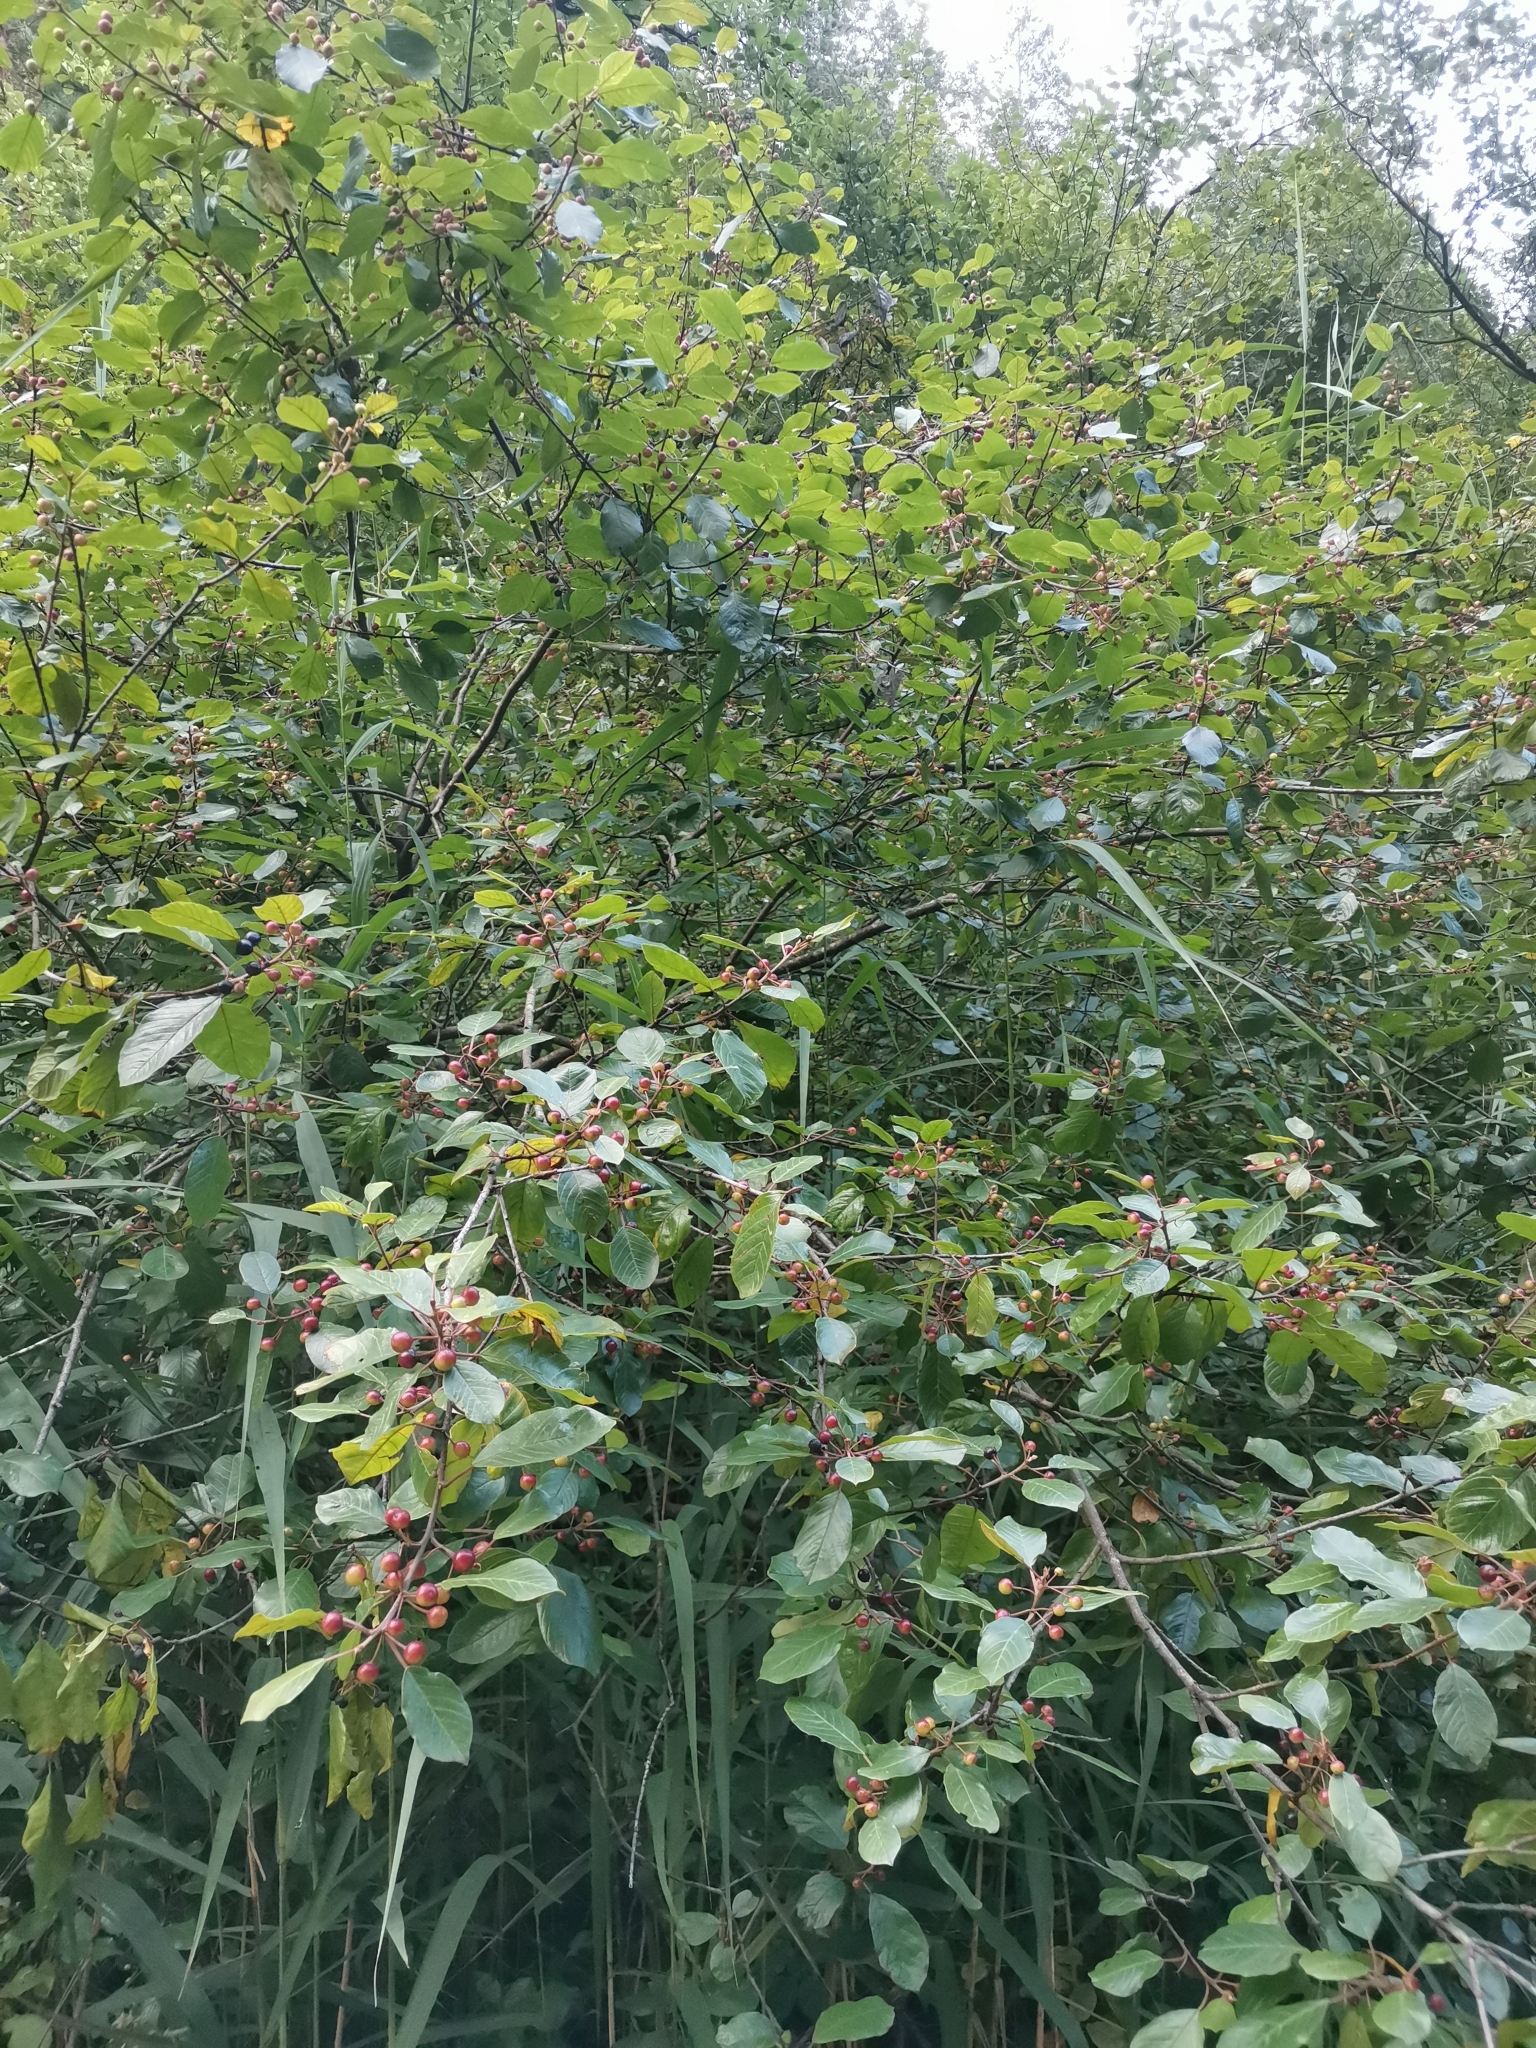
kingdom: Plantae
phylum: Tracheophyta
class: Magnoliopsida
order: Rosales
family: Rhamnaceae
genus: Frangula
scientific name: Frangula alnus
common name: Alder buckthorn
